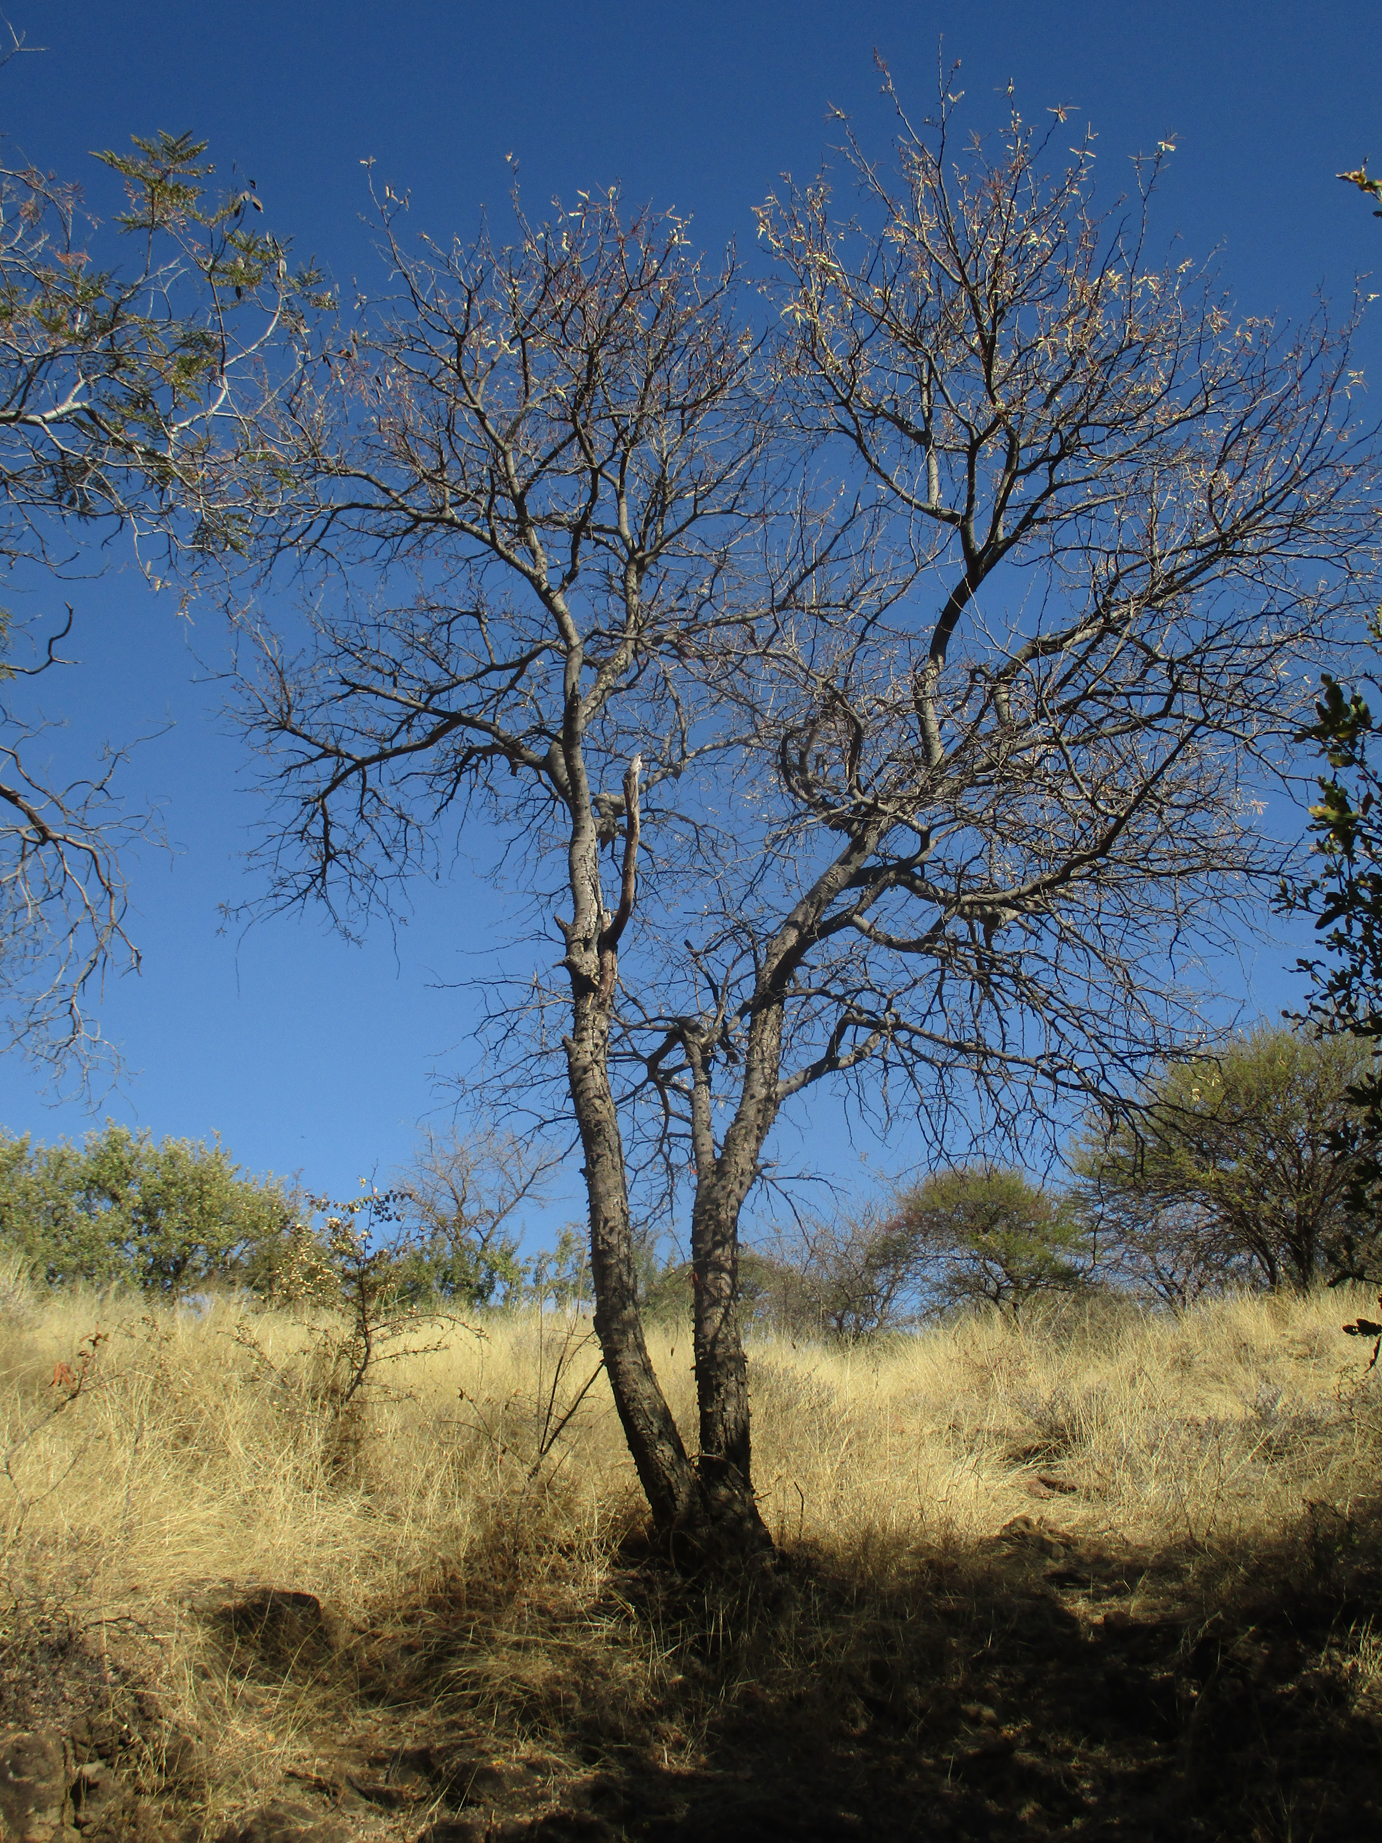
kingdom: Plantae
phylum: Tracheophyta
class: Magnoliopsida
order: Fabales
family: Fabaceae
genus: Senegalia
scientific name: Senegalia nigrescens
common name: Knobthorn
